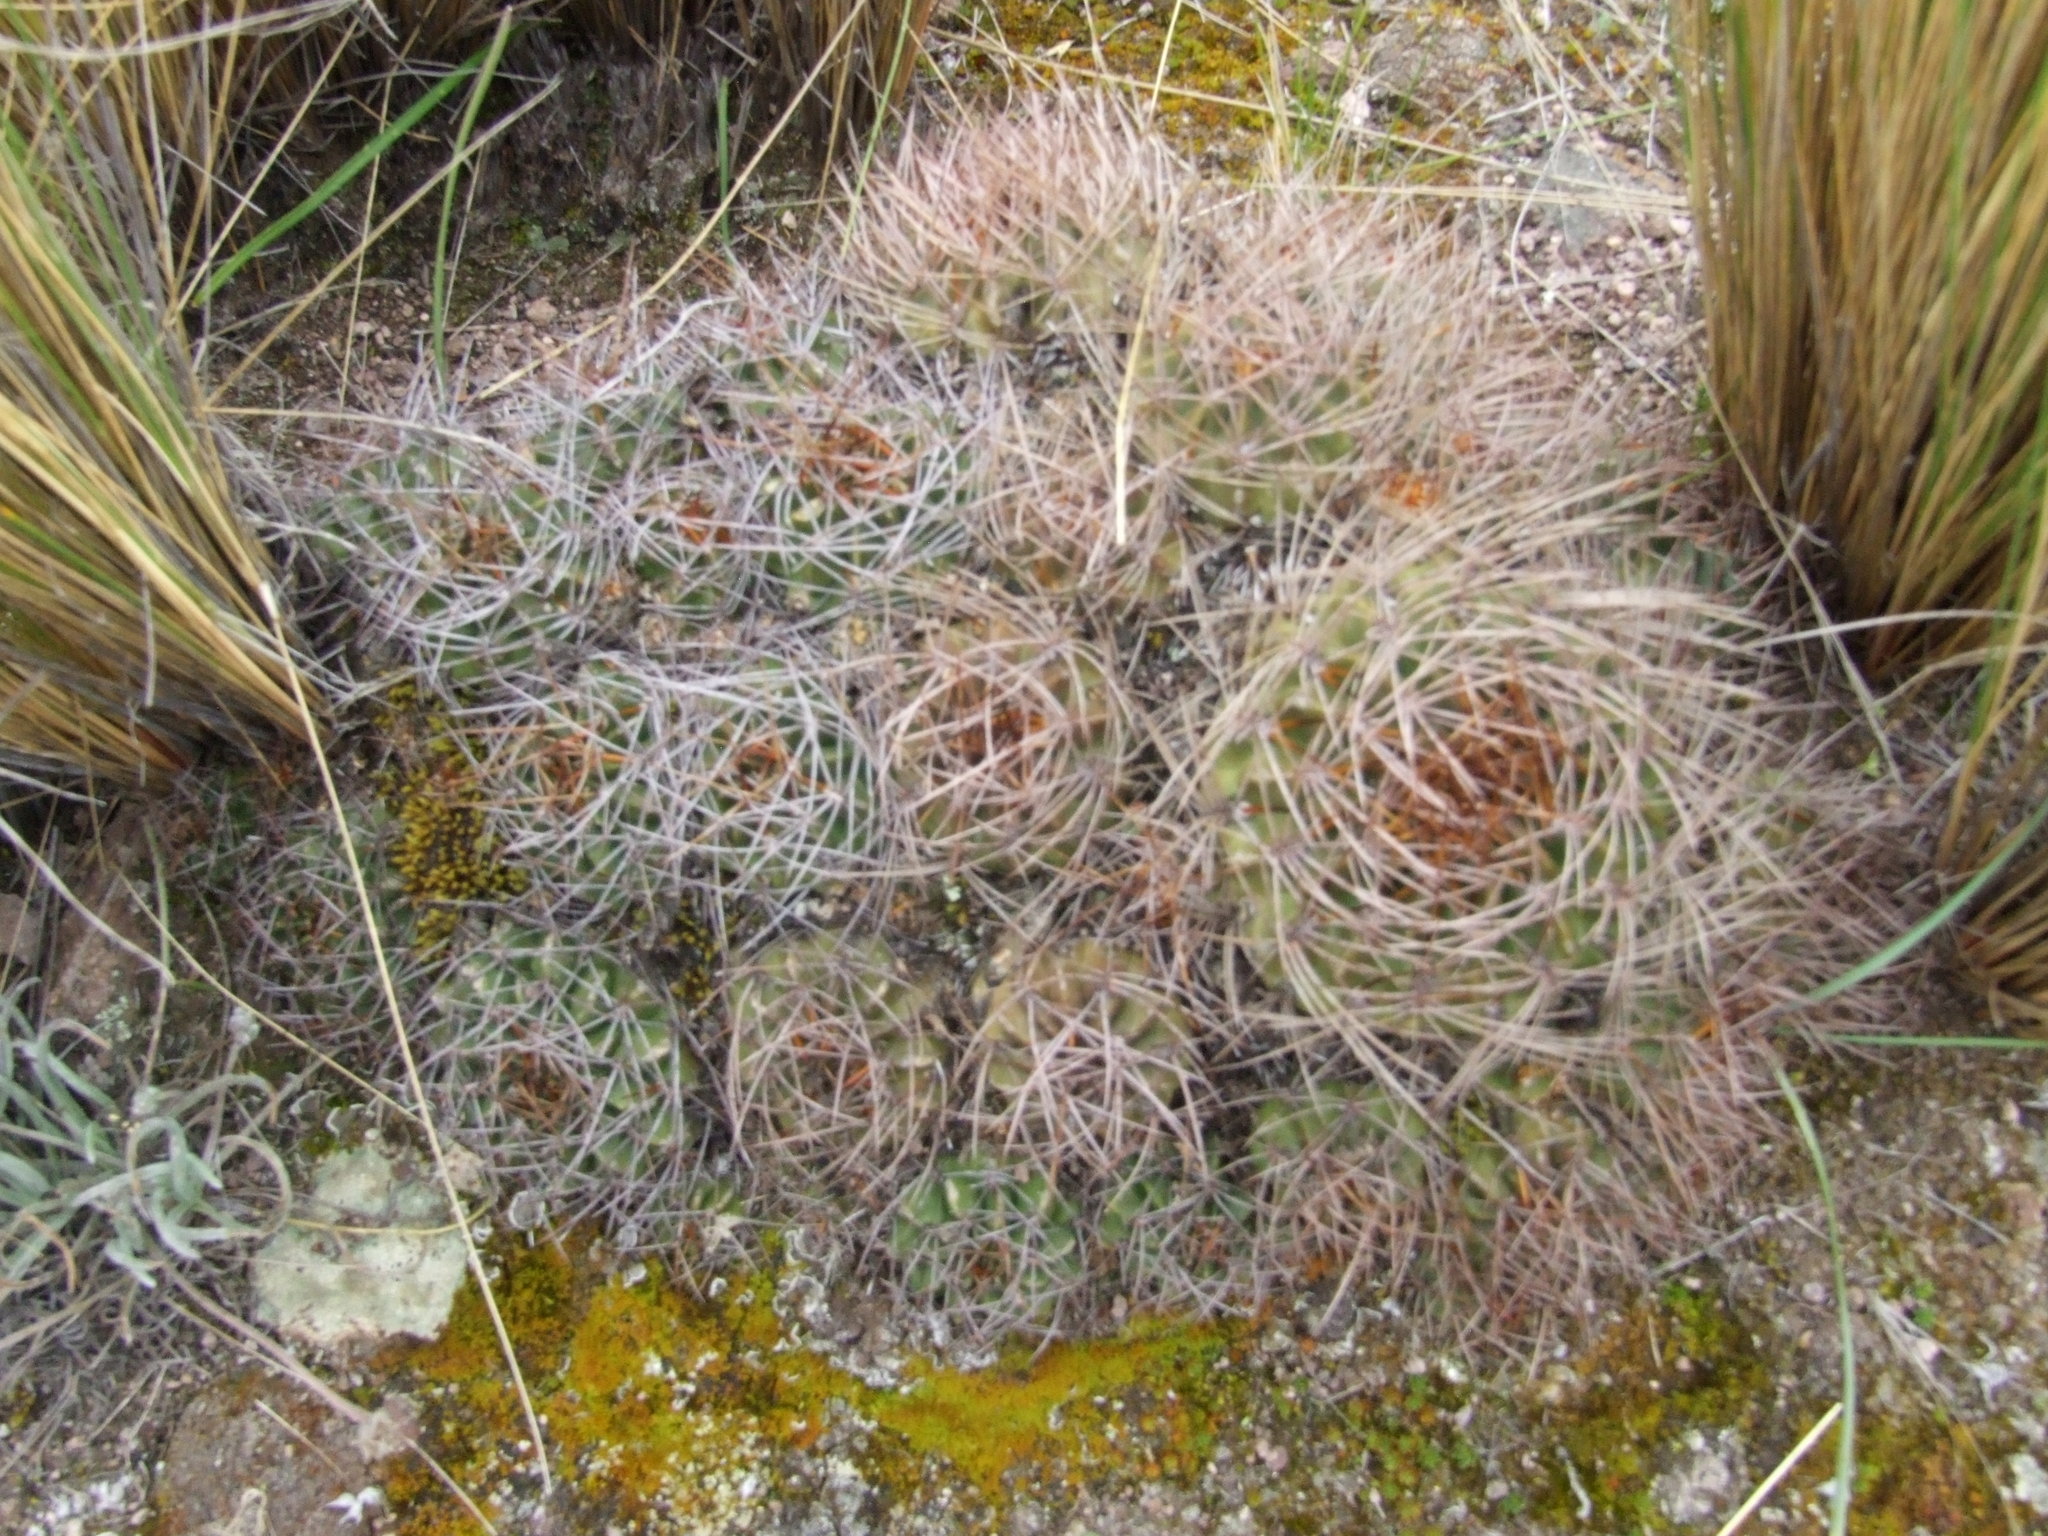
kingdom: Plantae
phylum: Tracheophyta
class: Magnoliopsida
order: Caryophyllales
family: Cactaceae
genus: Lobivia
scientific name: Lobivia maximiliana
